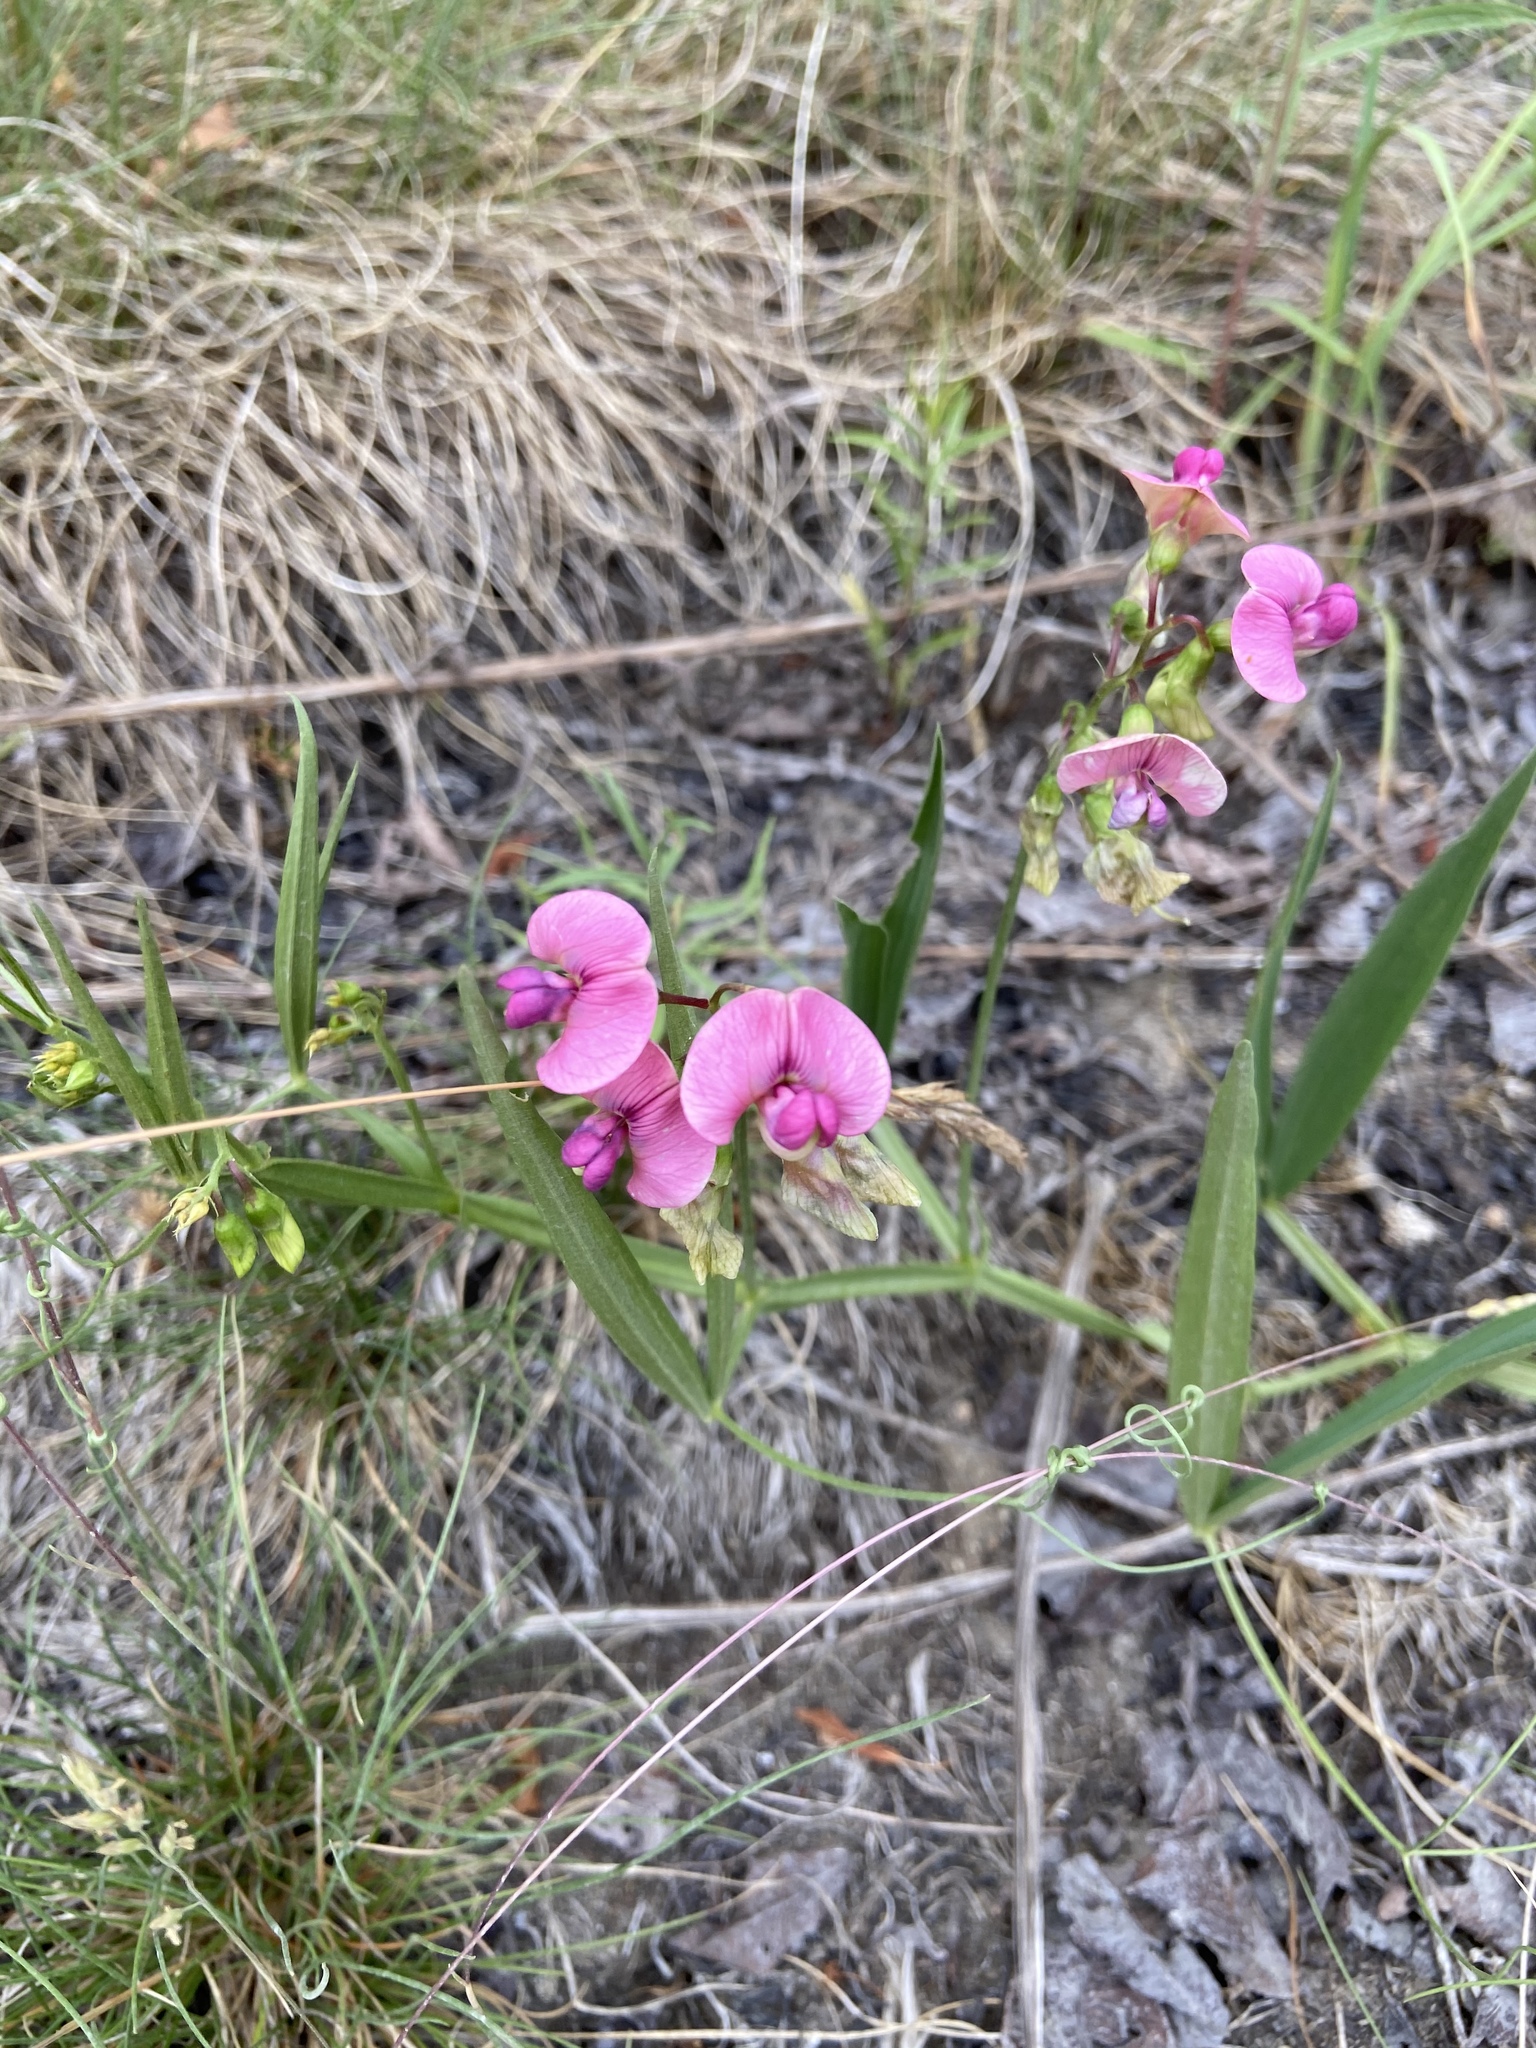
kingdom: Plantae
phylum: Tracheophyta
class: Magnoliopsida
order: Fabales
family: Fabaceae
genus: Lathyrus
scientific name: Lathyrus sylvestris
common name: Flat pea
